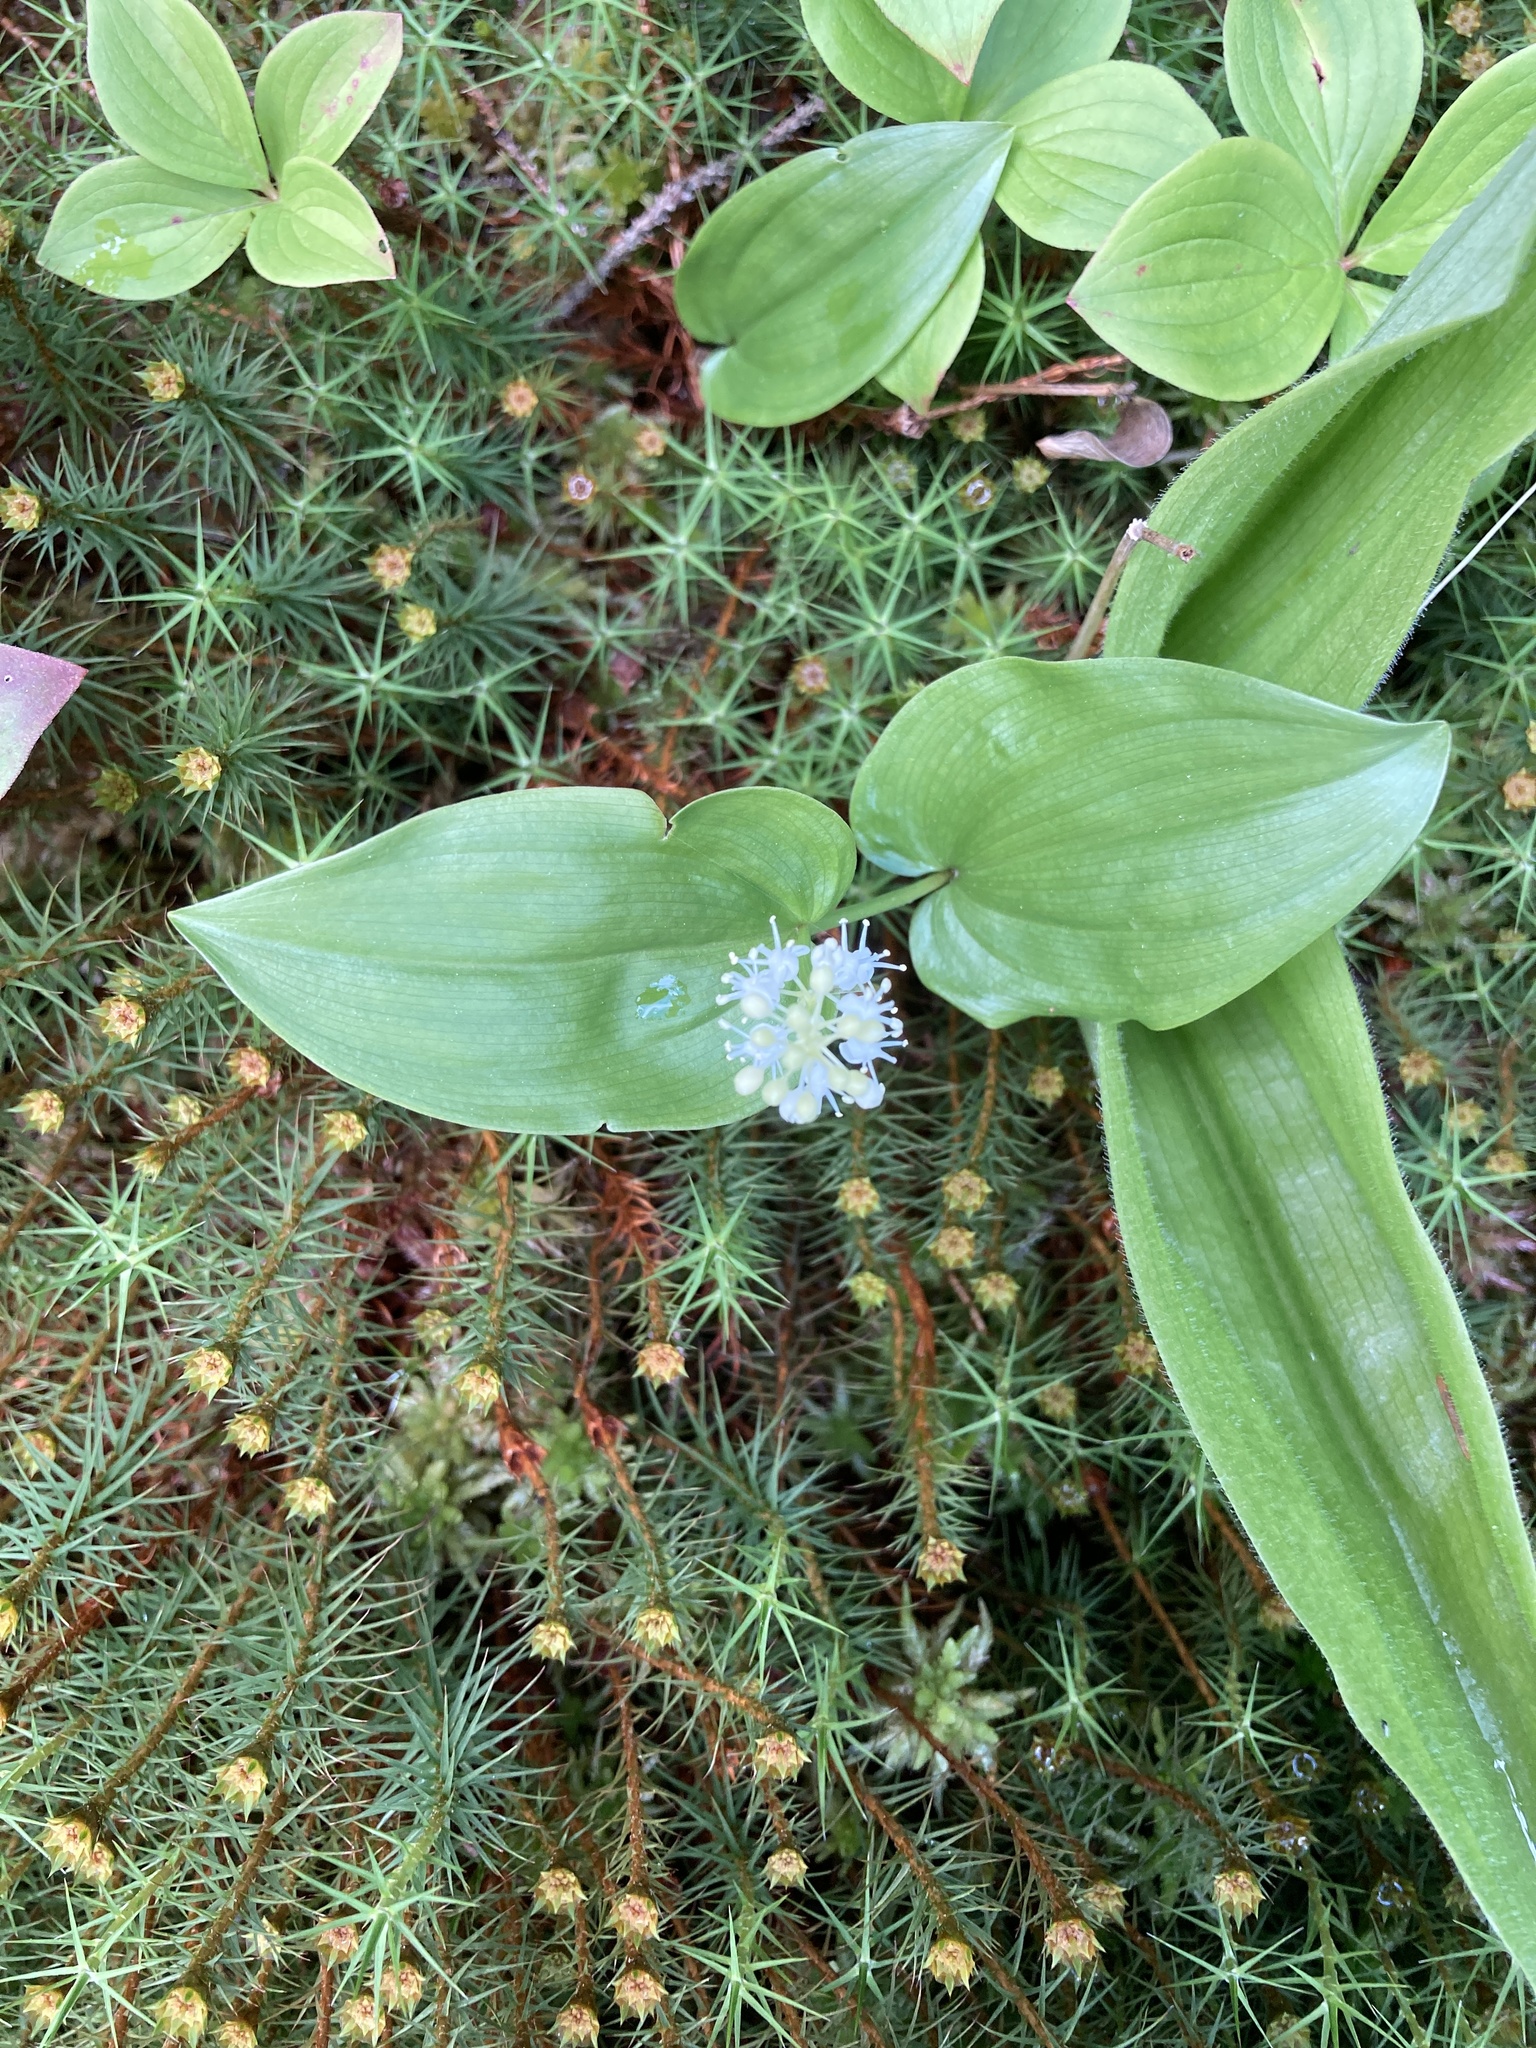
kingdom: Plantae
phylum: Tracheophyta
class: Liliopsida
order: Asparagales
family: Asparagaceae
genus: Maianthemum
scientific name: Maianthemum canadense
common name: False lily-of-the-valley
